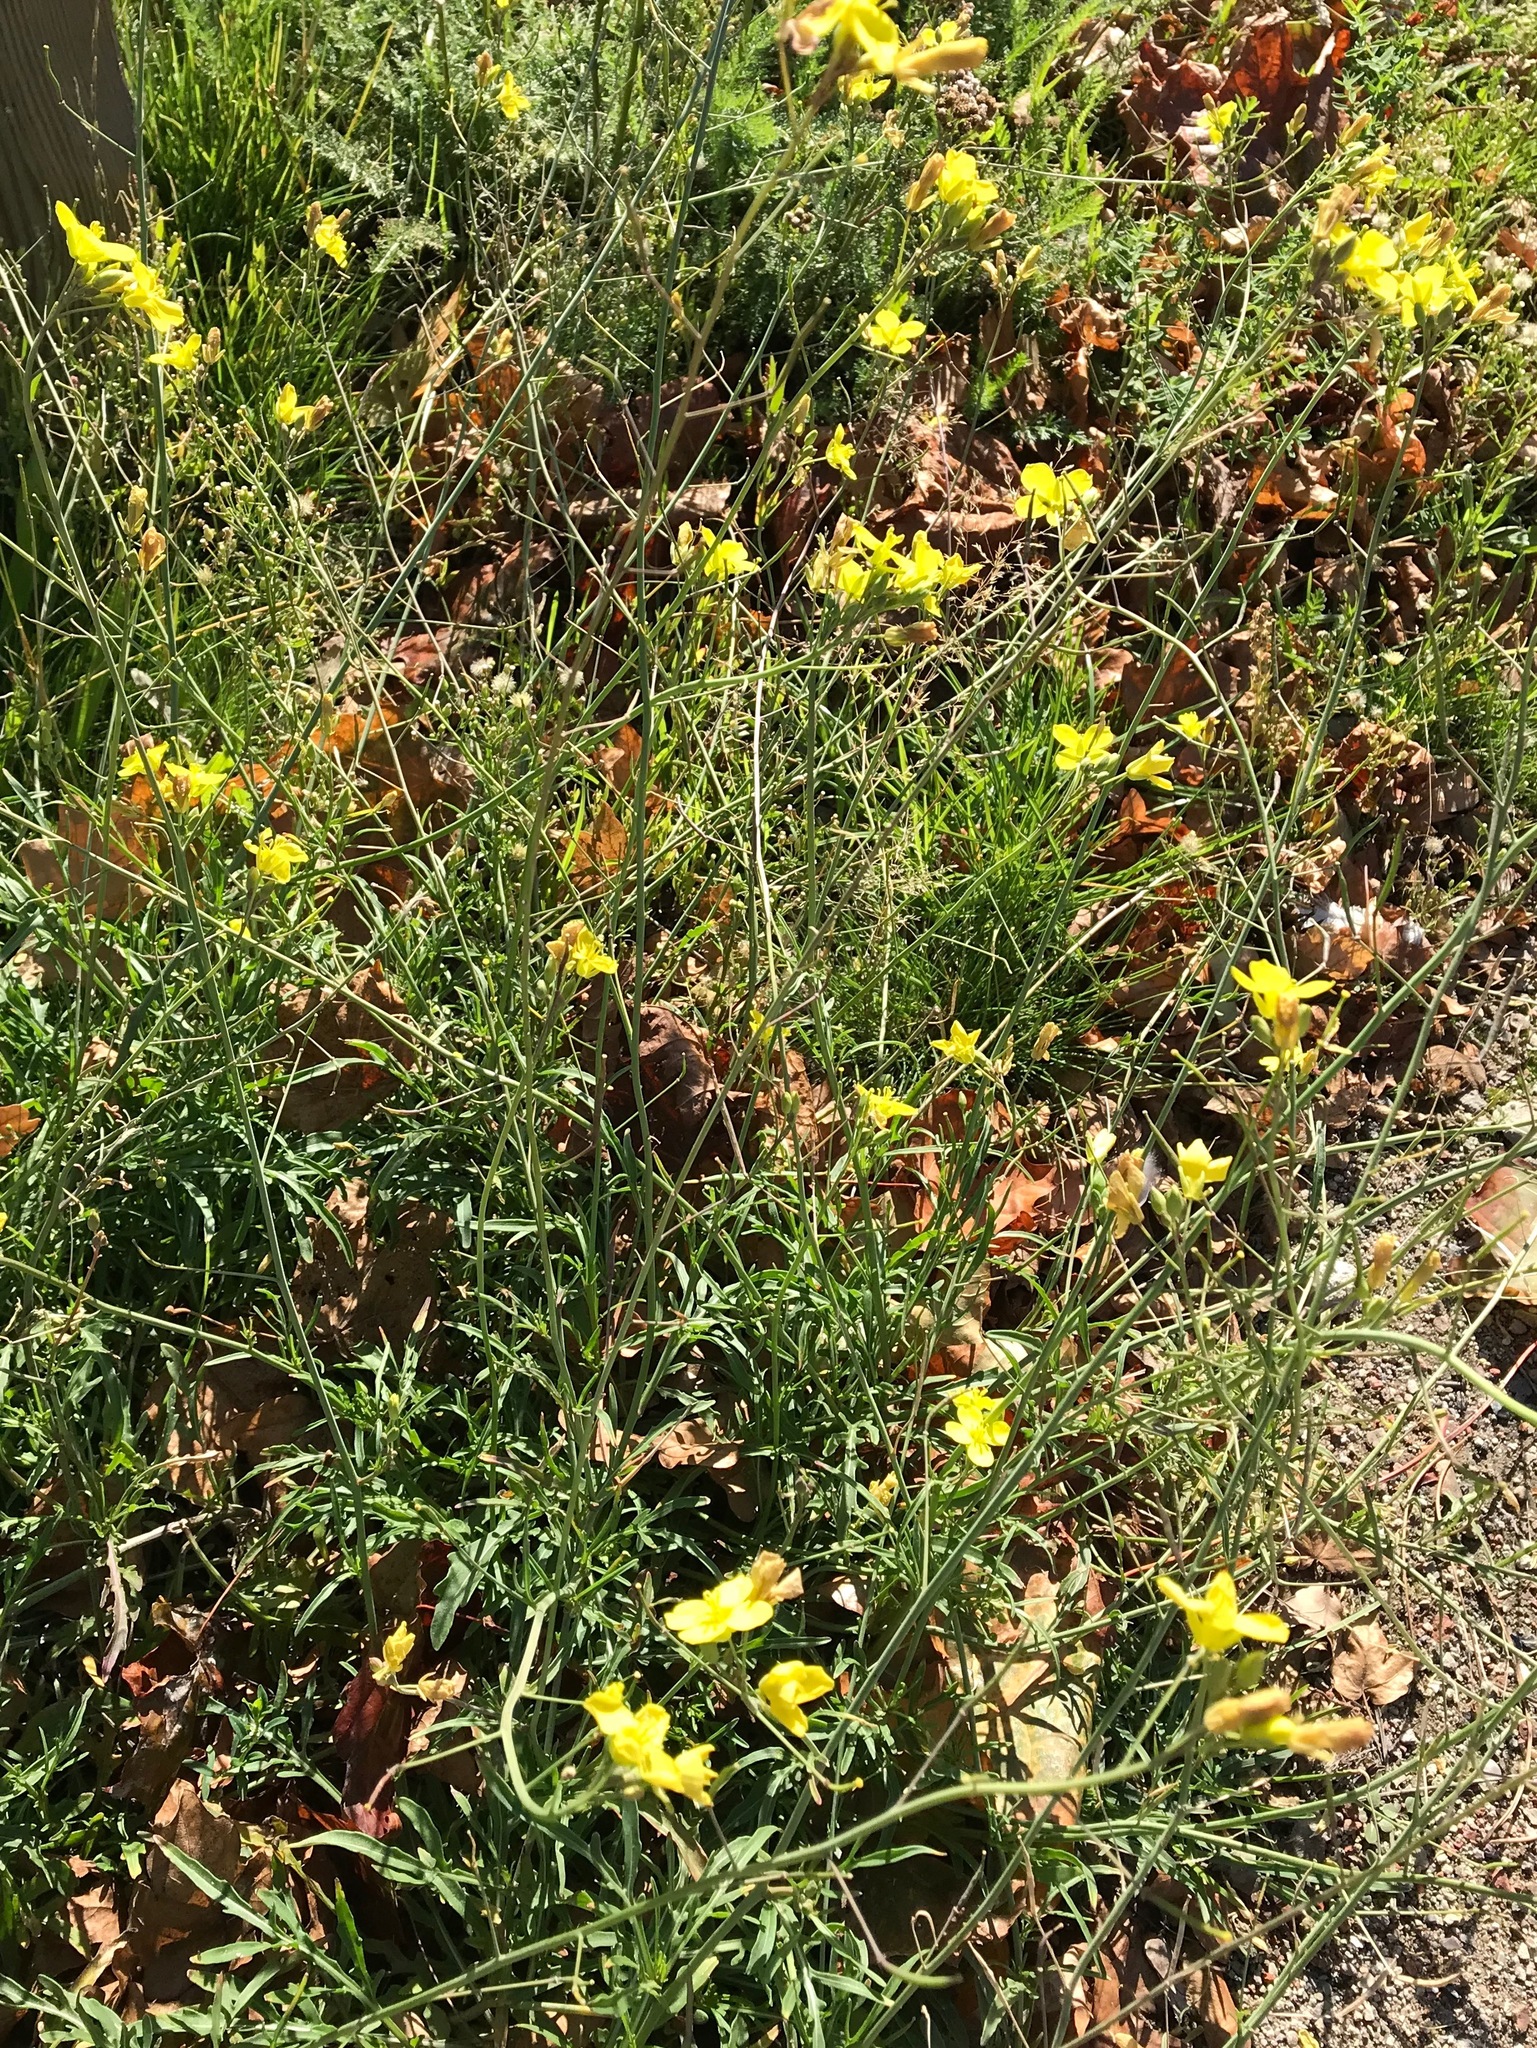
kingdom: Plantae
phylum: Tracheophyta
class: Magnoliopsida
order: Brassicales
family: Brassicaceae
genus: Diplotaxis
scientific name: Diplotaxis tenuifolia
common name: Perennial wall-rocket
